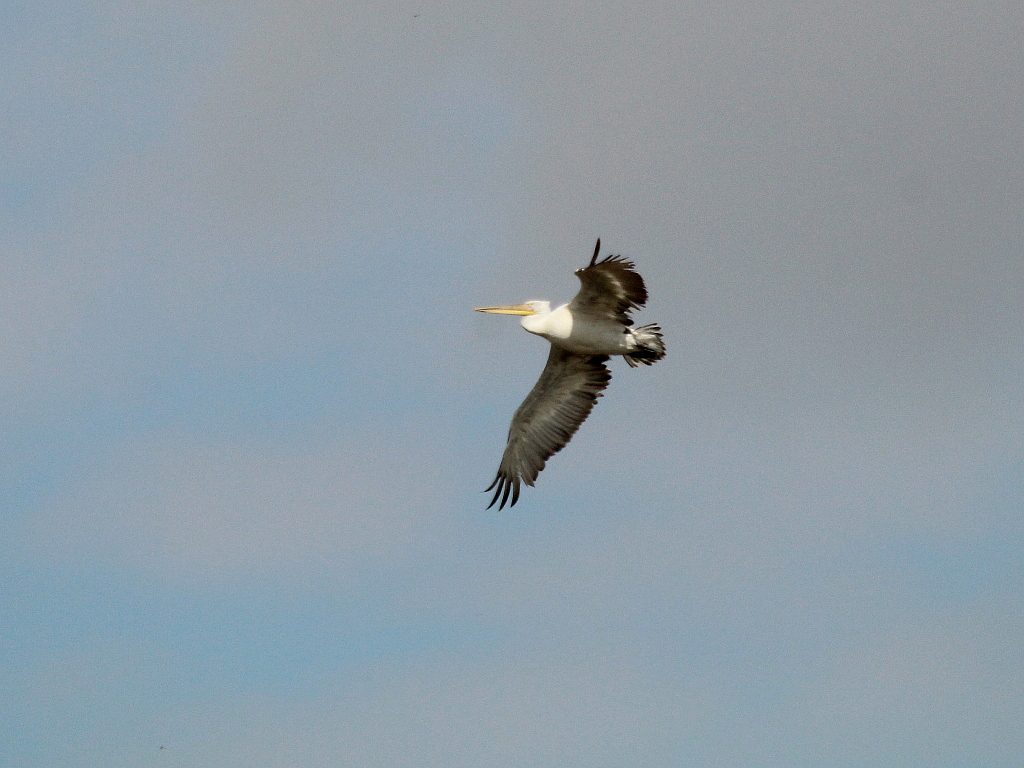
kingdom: Animalia
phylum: Chordata
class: Aves
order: Pelecaniformes
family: Pelecanidae
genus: Pelecanus
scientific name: Pelecanus crispus
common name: Dalmatian pelican
